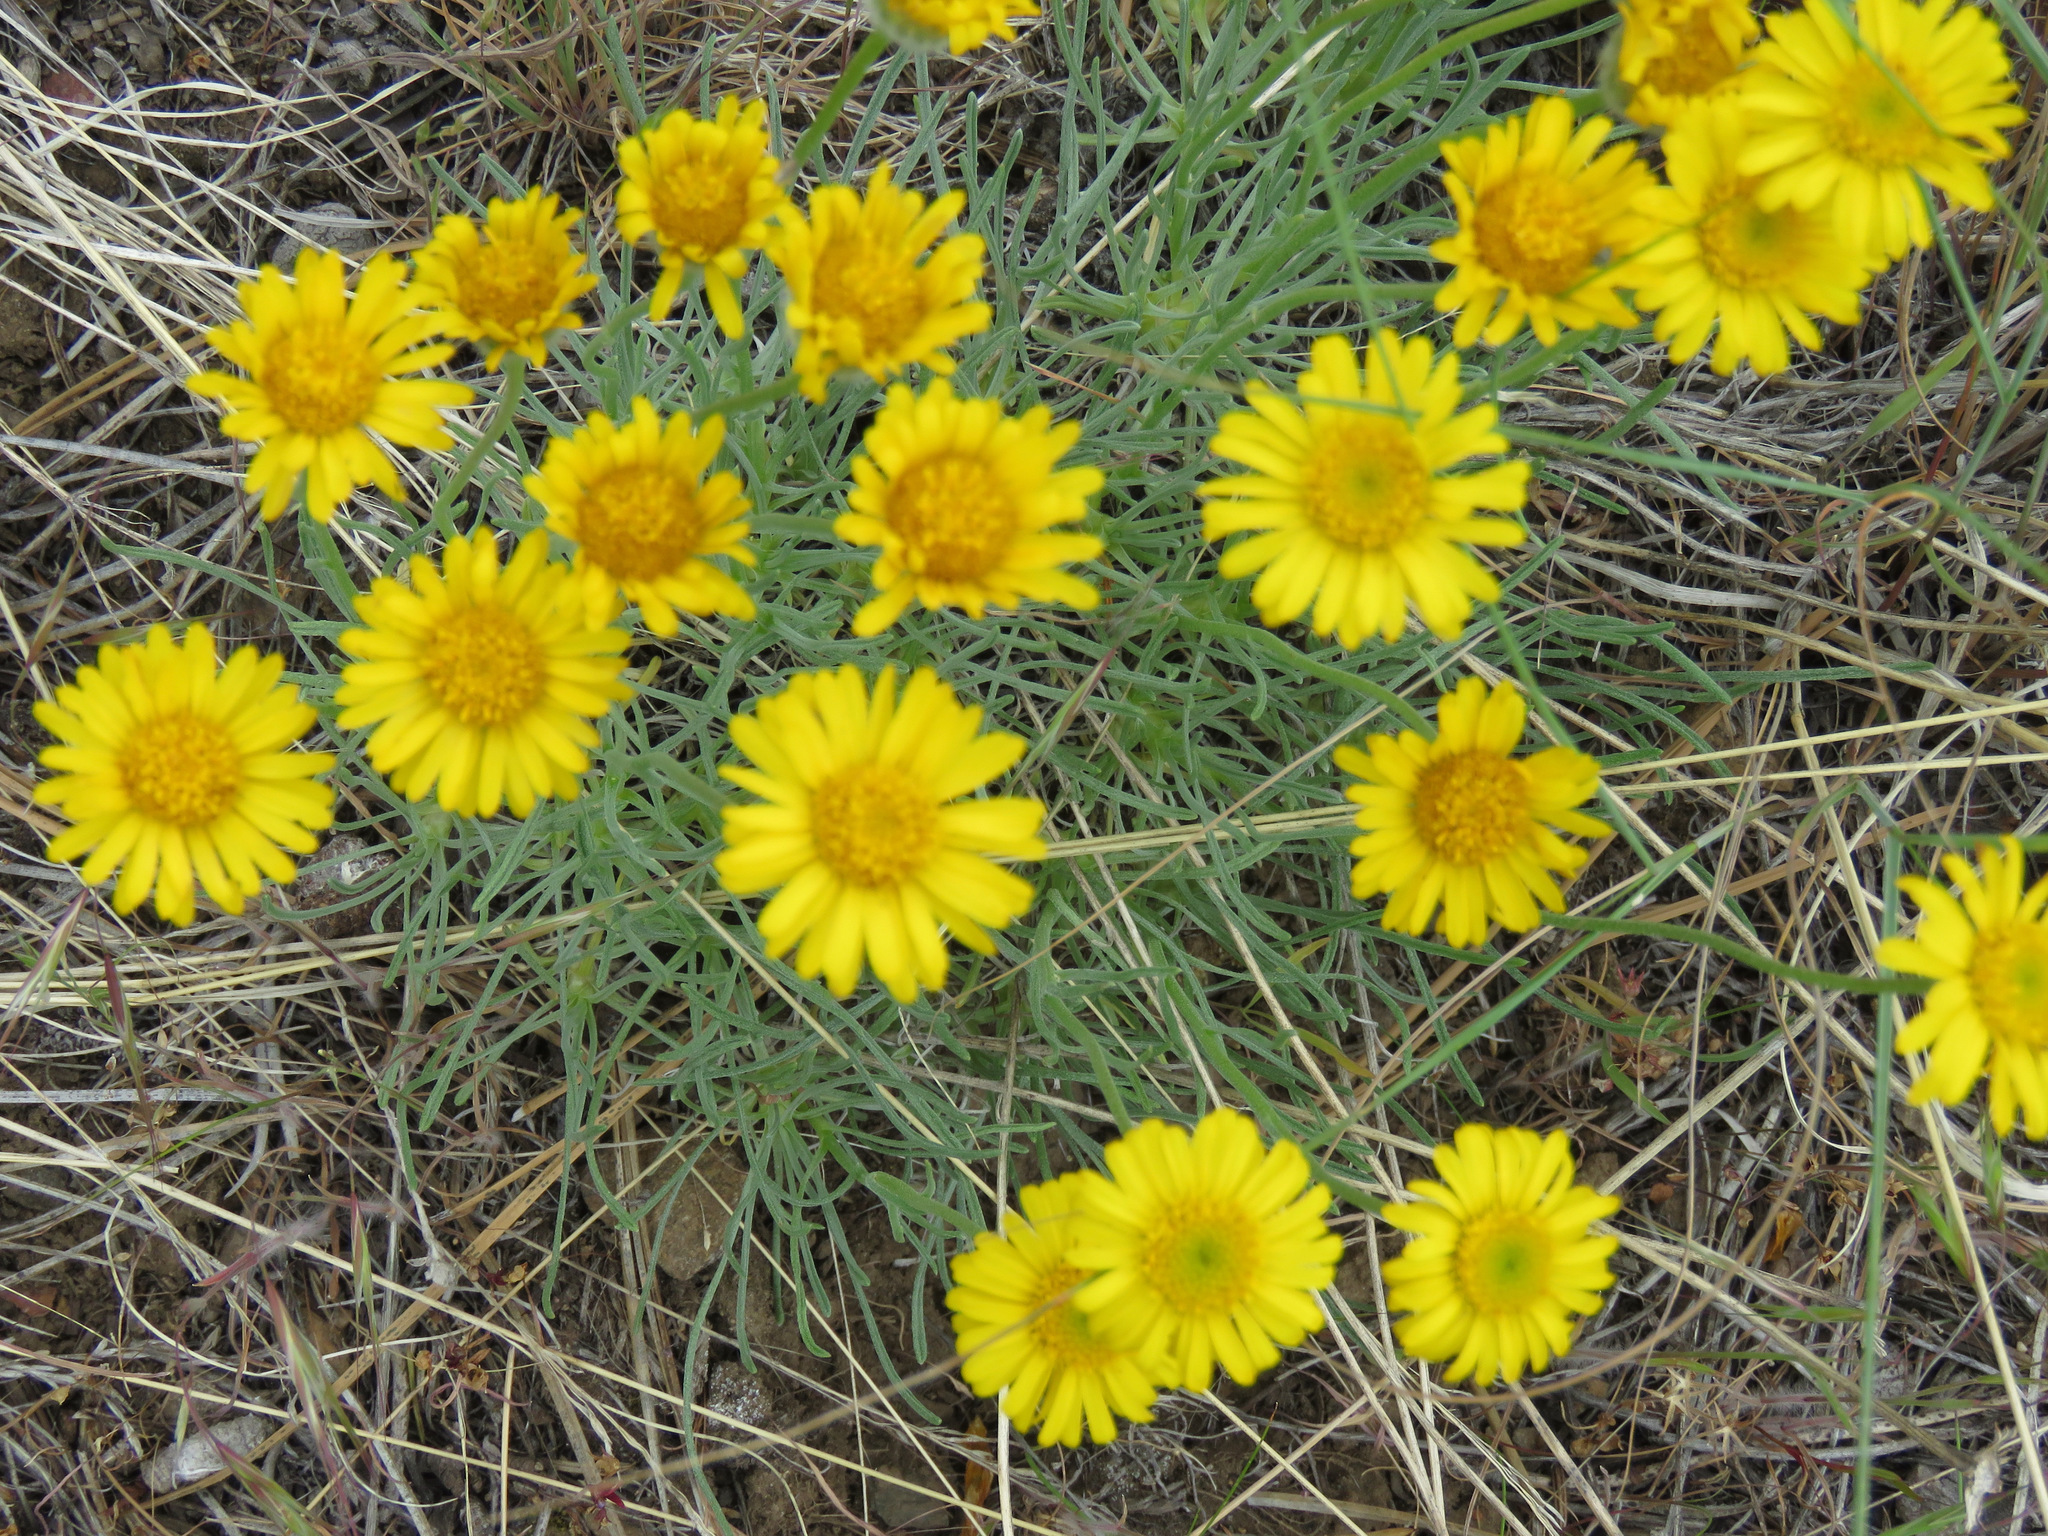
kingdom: Plantae
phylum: Tracheophyta
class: Magnoliopsida
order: Asterales
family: Asteraceae
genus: Erigeron
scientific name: Erigeron linearis
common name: Desert yellow fleabane
